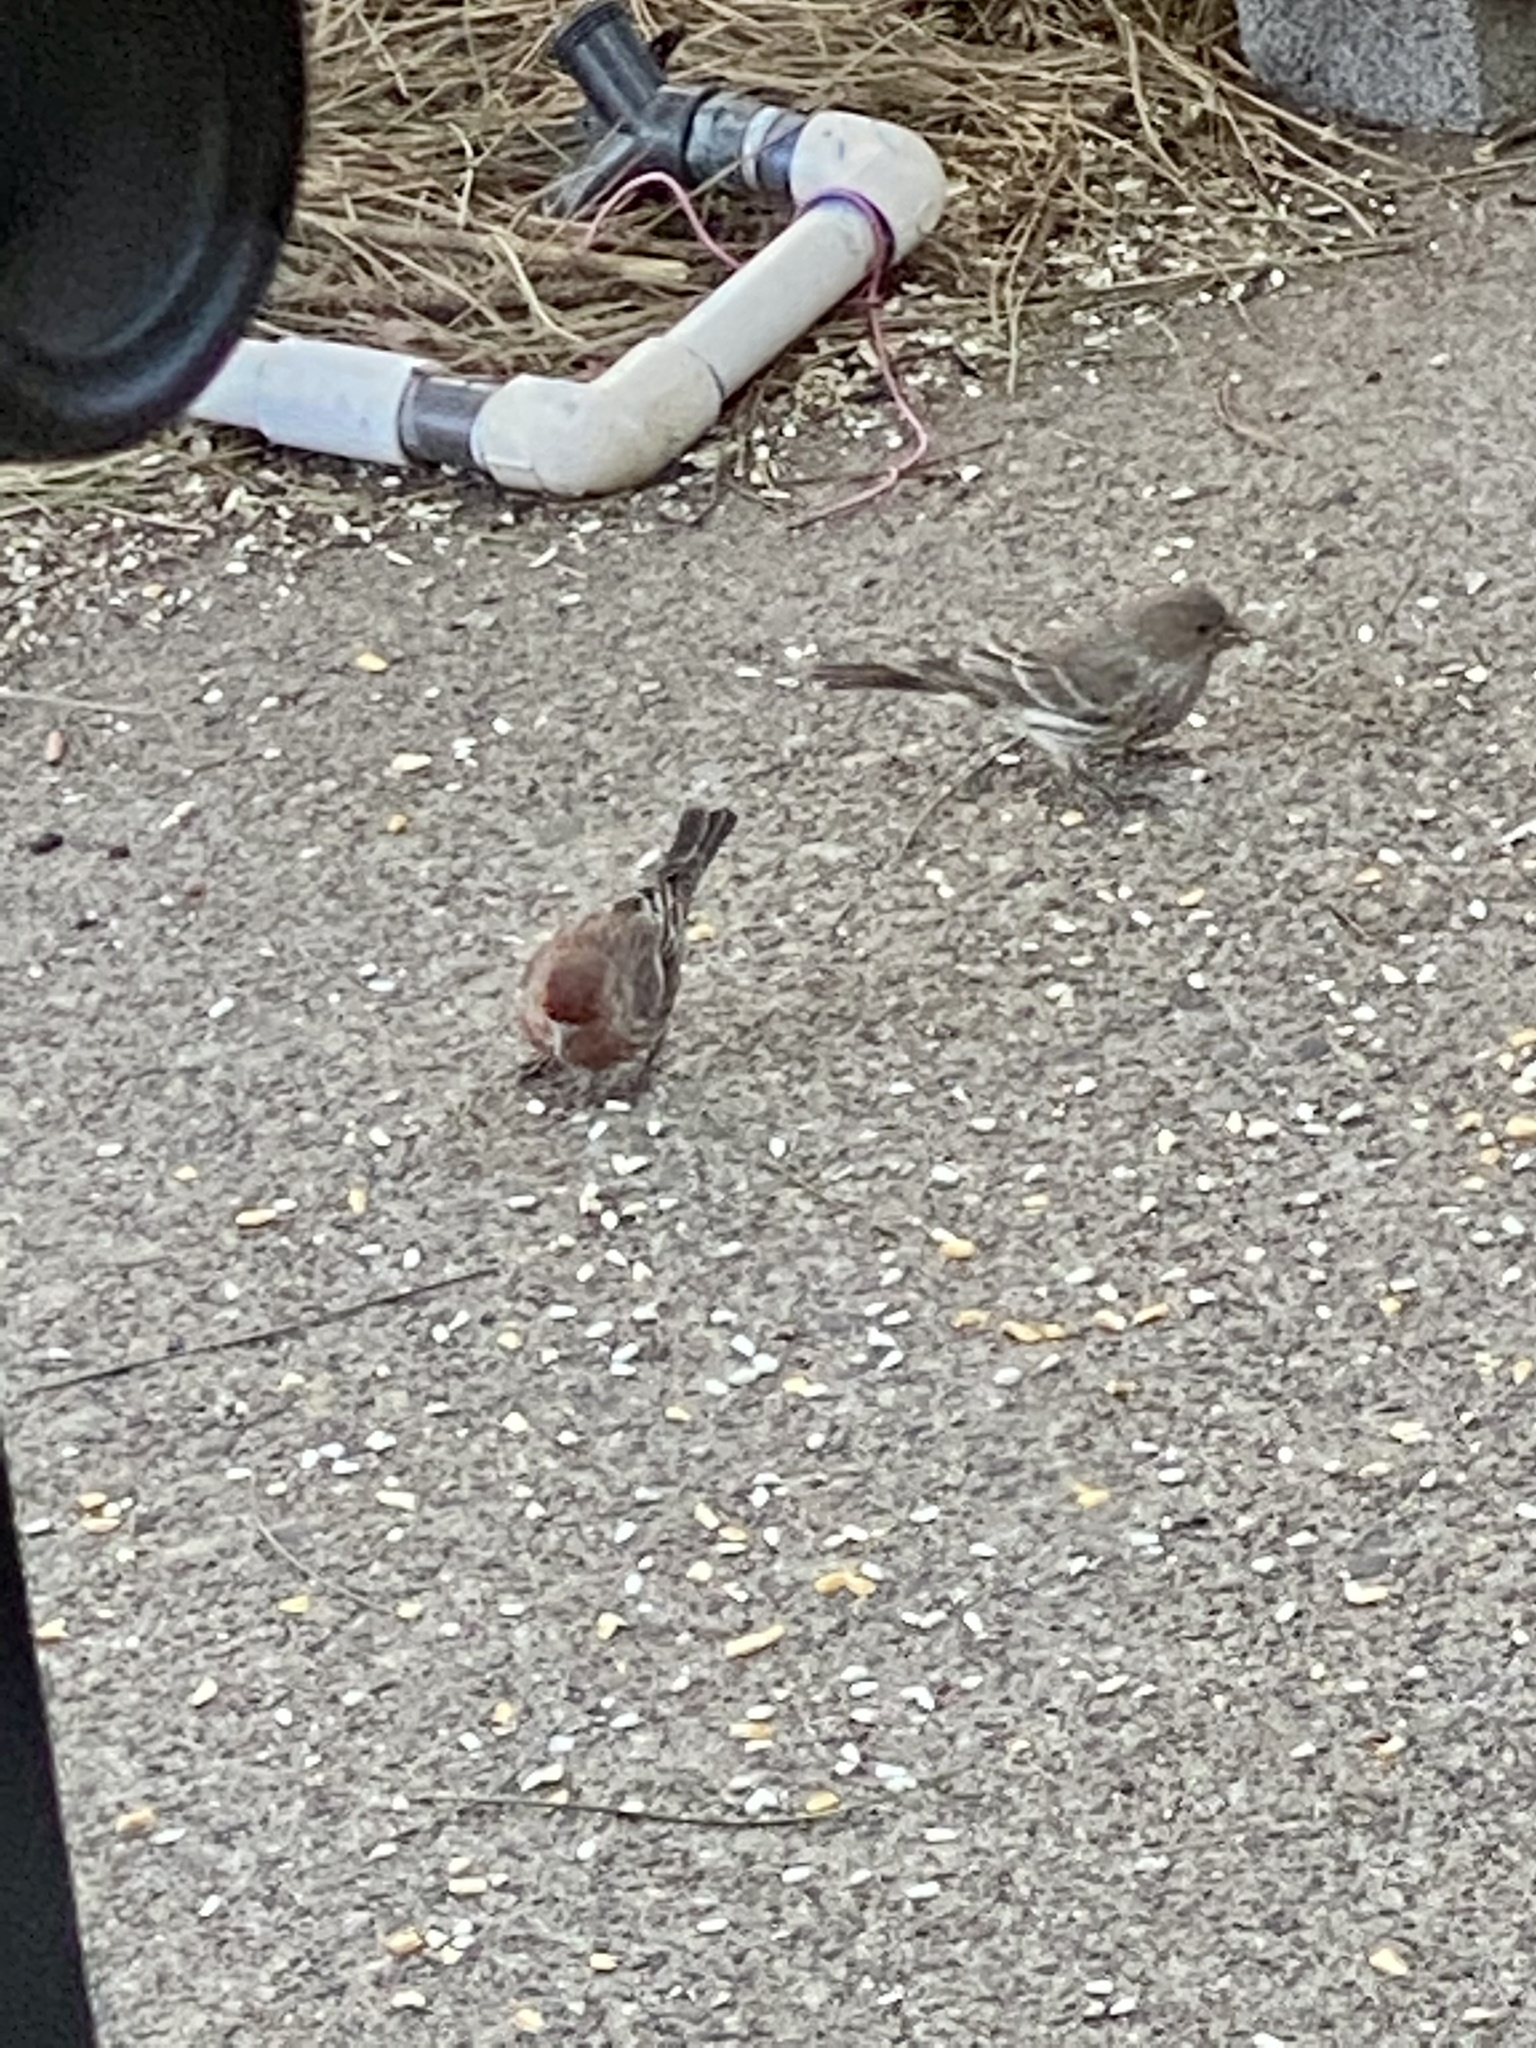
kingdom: Animalia
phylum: Chordata
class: Aves
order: Passeriformes
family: Fringillidae
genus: Haemorhous
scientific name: Haemorhous mexicanus
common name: House finch
